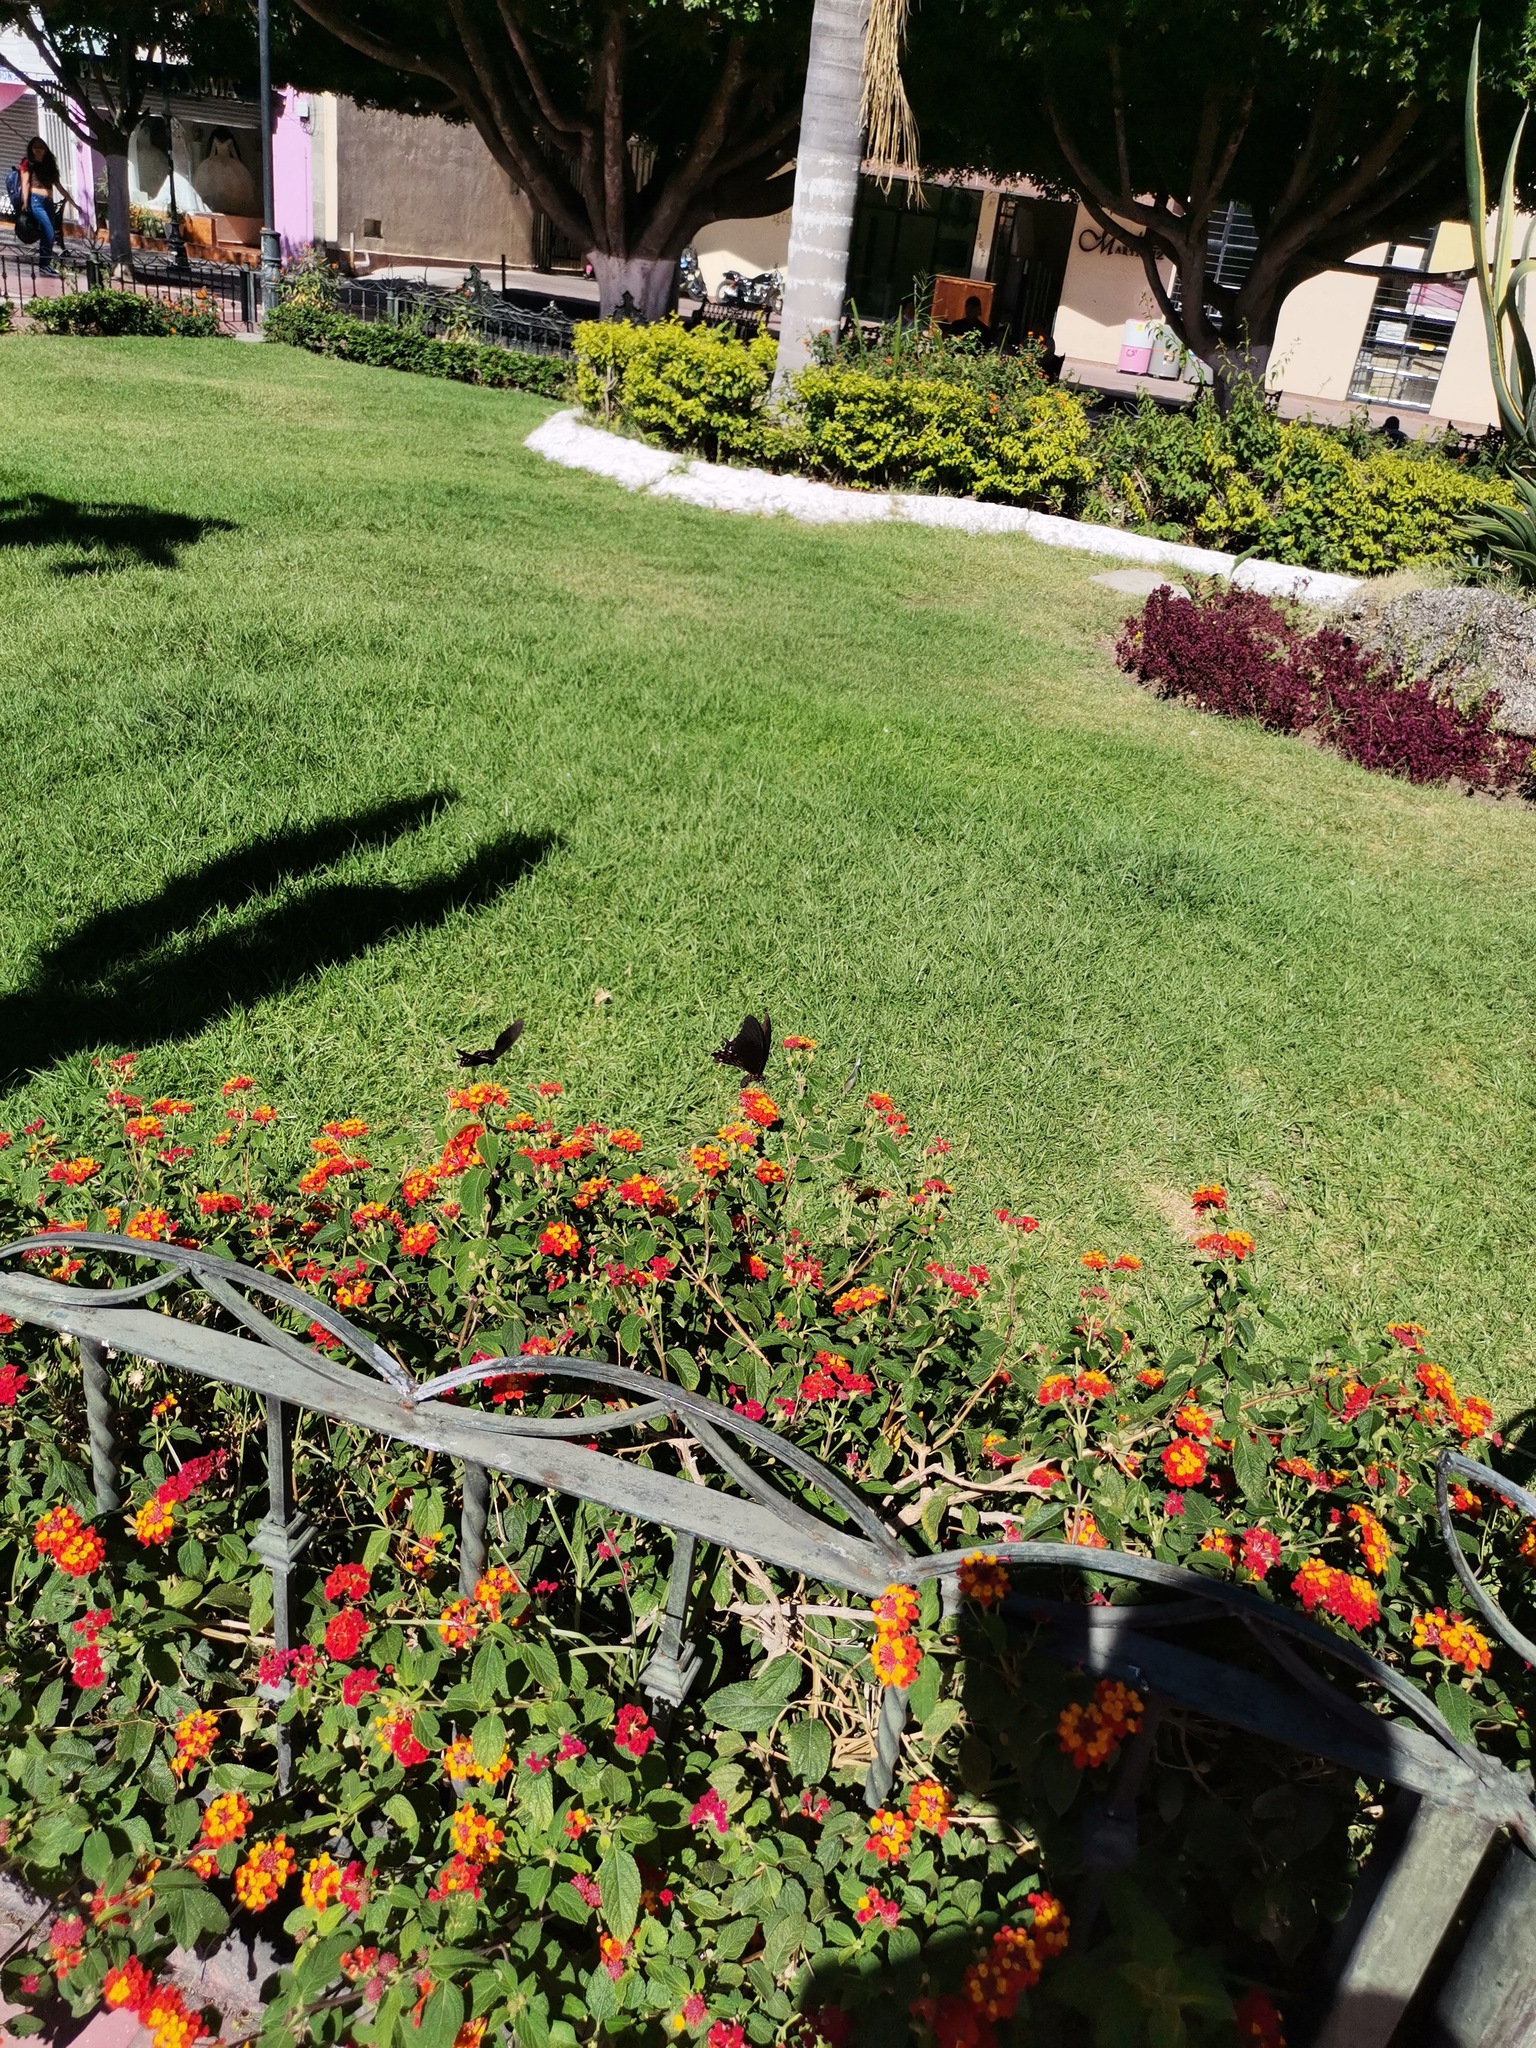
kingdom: Animalia
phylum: Arthropoda
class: Insecta
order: Lepidoptera
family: Papilionidae
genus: Heraclides
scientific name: Heraclides rogeri
